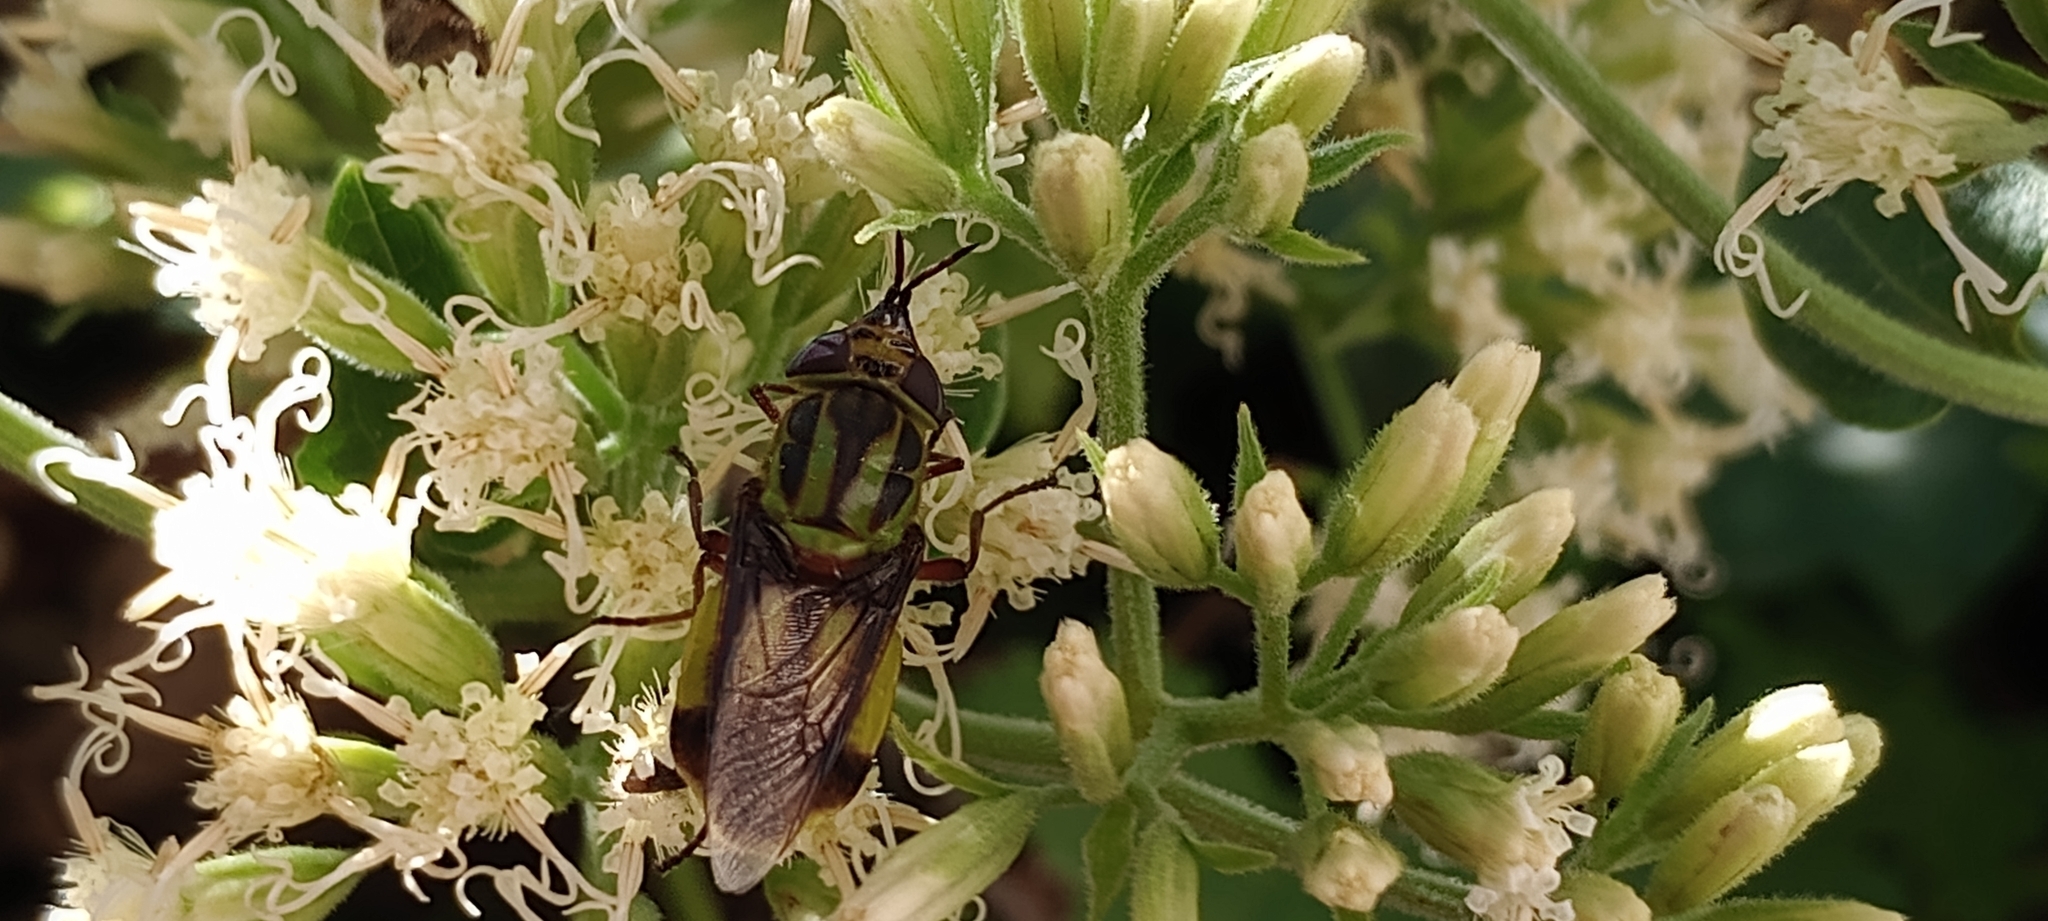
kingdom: Animalia
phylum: Arthropoda
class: Insecta
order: Diptera
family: Stratiomyidae
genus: Hedriodiscus
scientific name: Hedriodiscus pulcher
